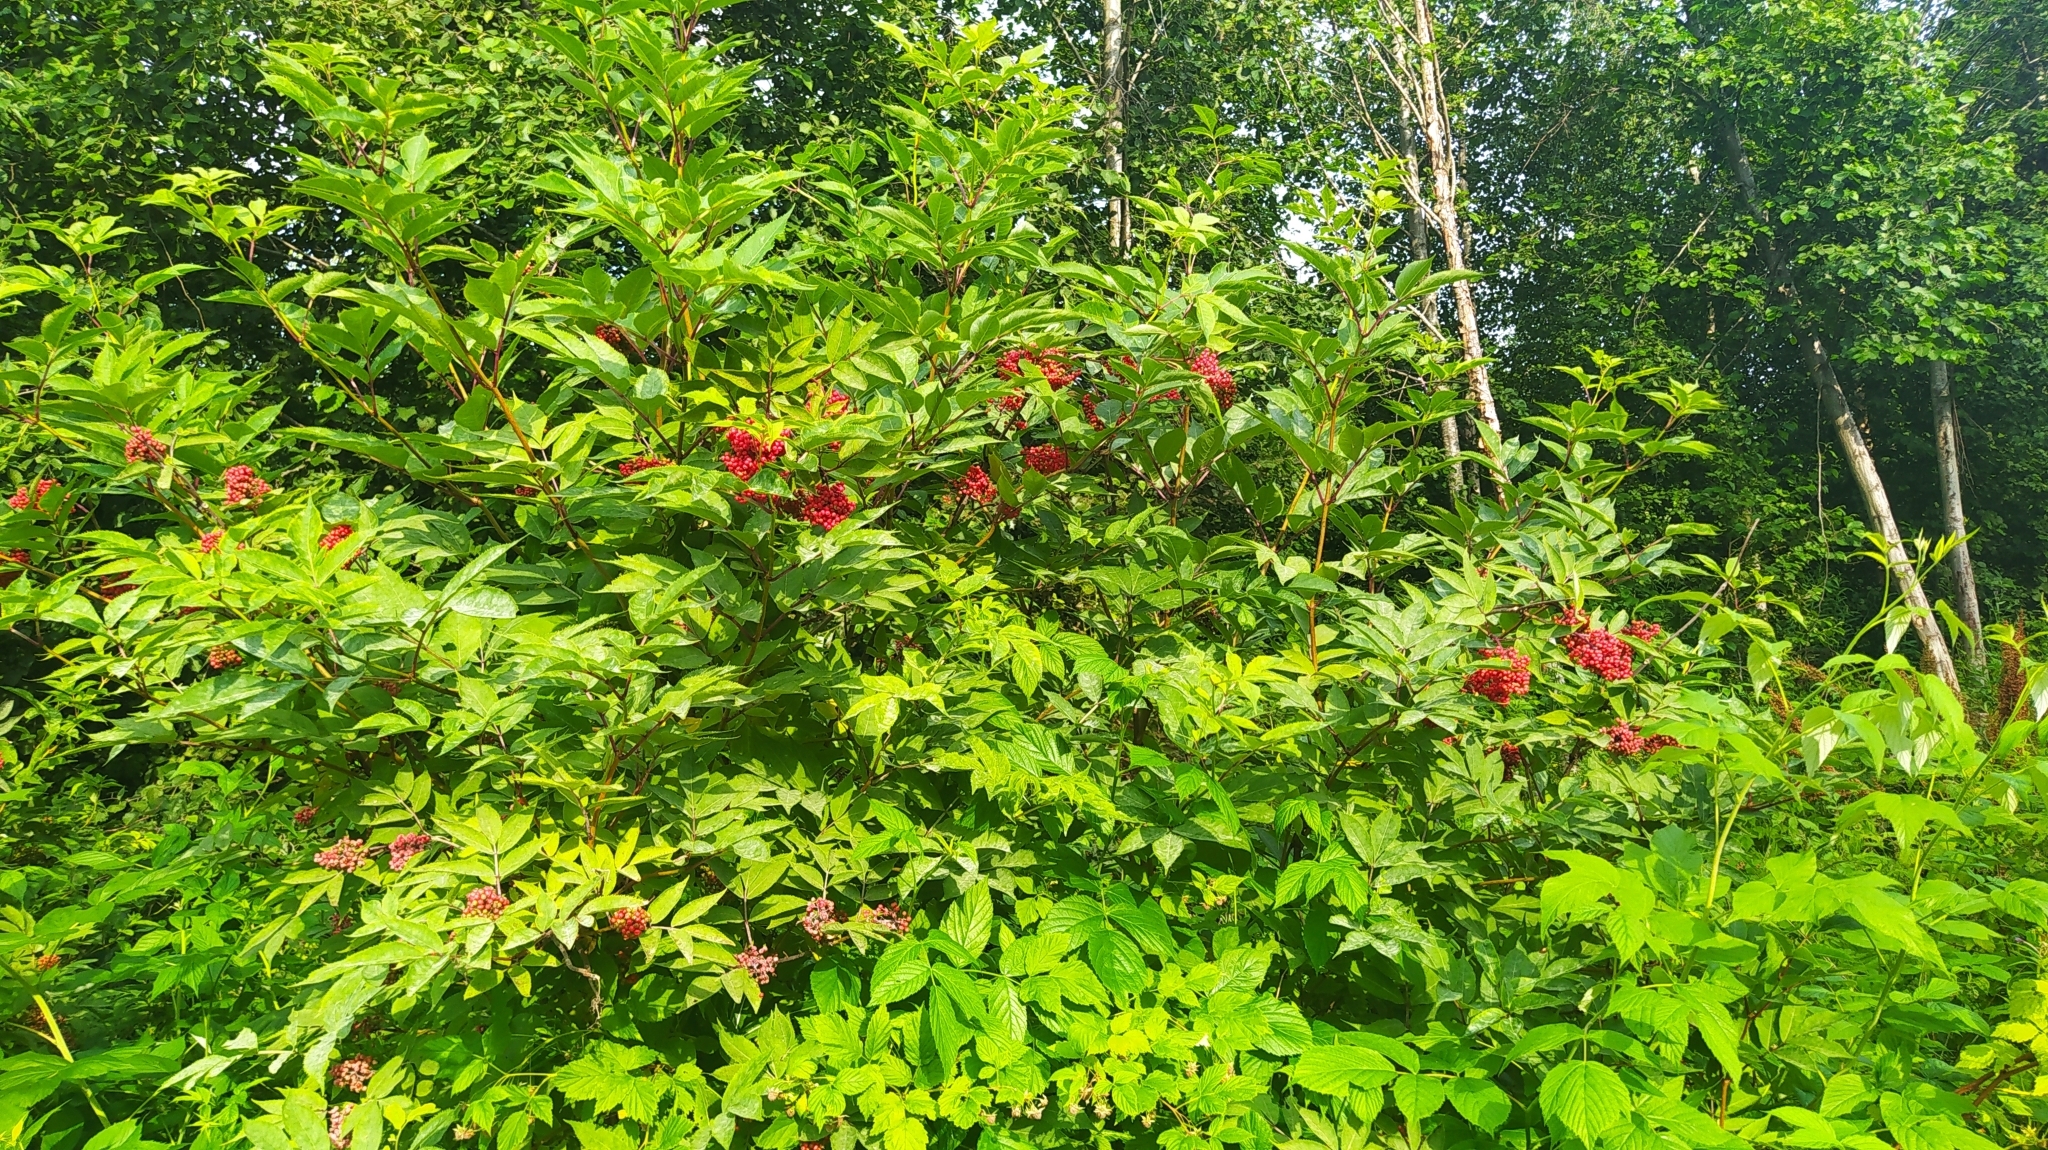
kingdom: Plantae
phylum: Tracheophyta
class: Magnoliopsida
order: Dipsacales
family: Viburnaceae
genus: Sambucus
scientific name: Sambucus racemosa
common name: Red-berried elder
